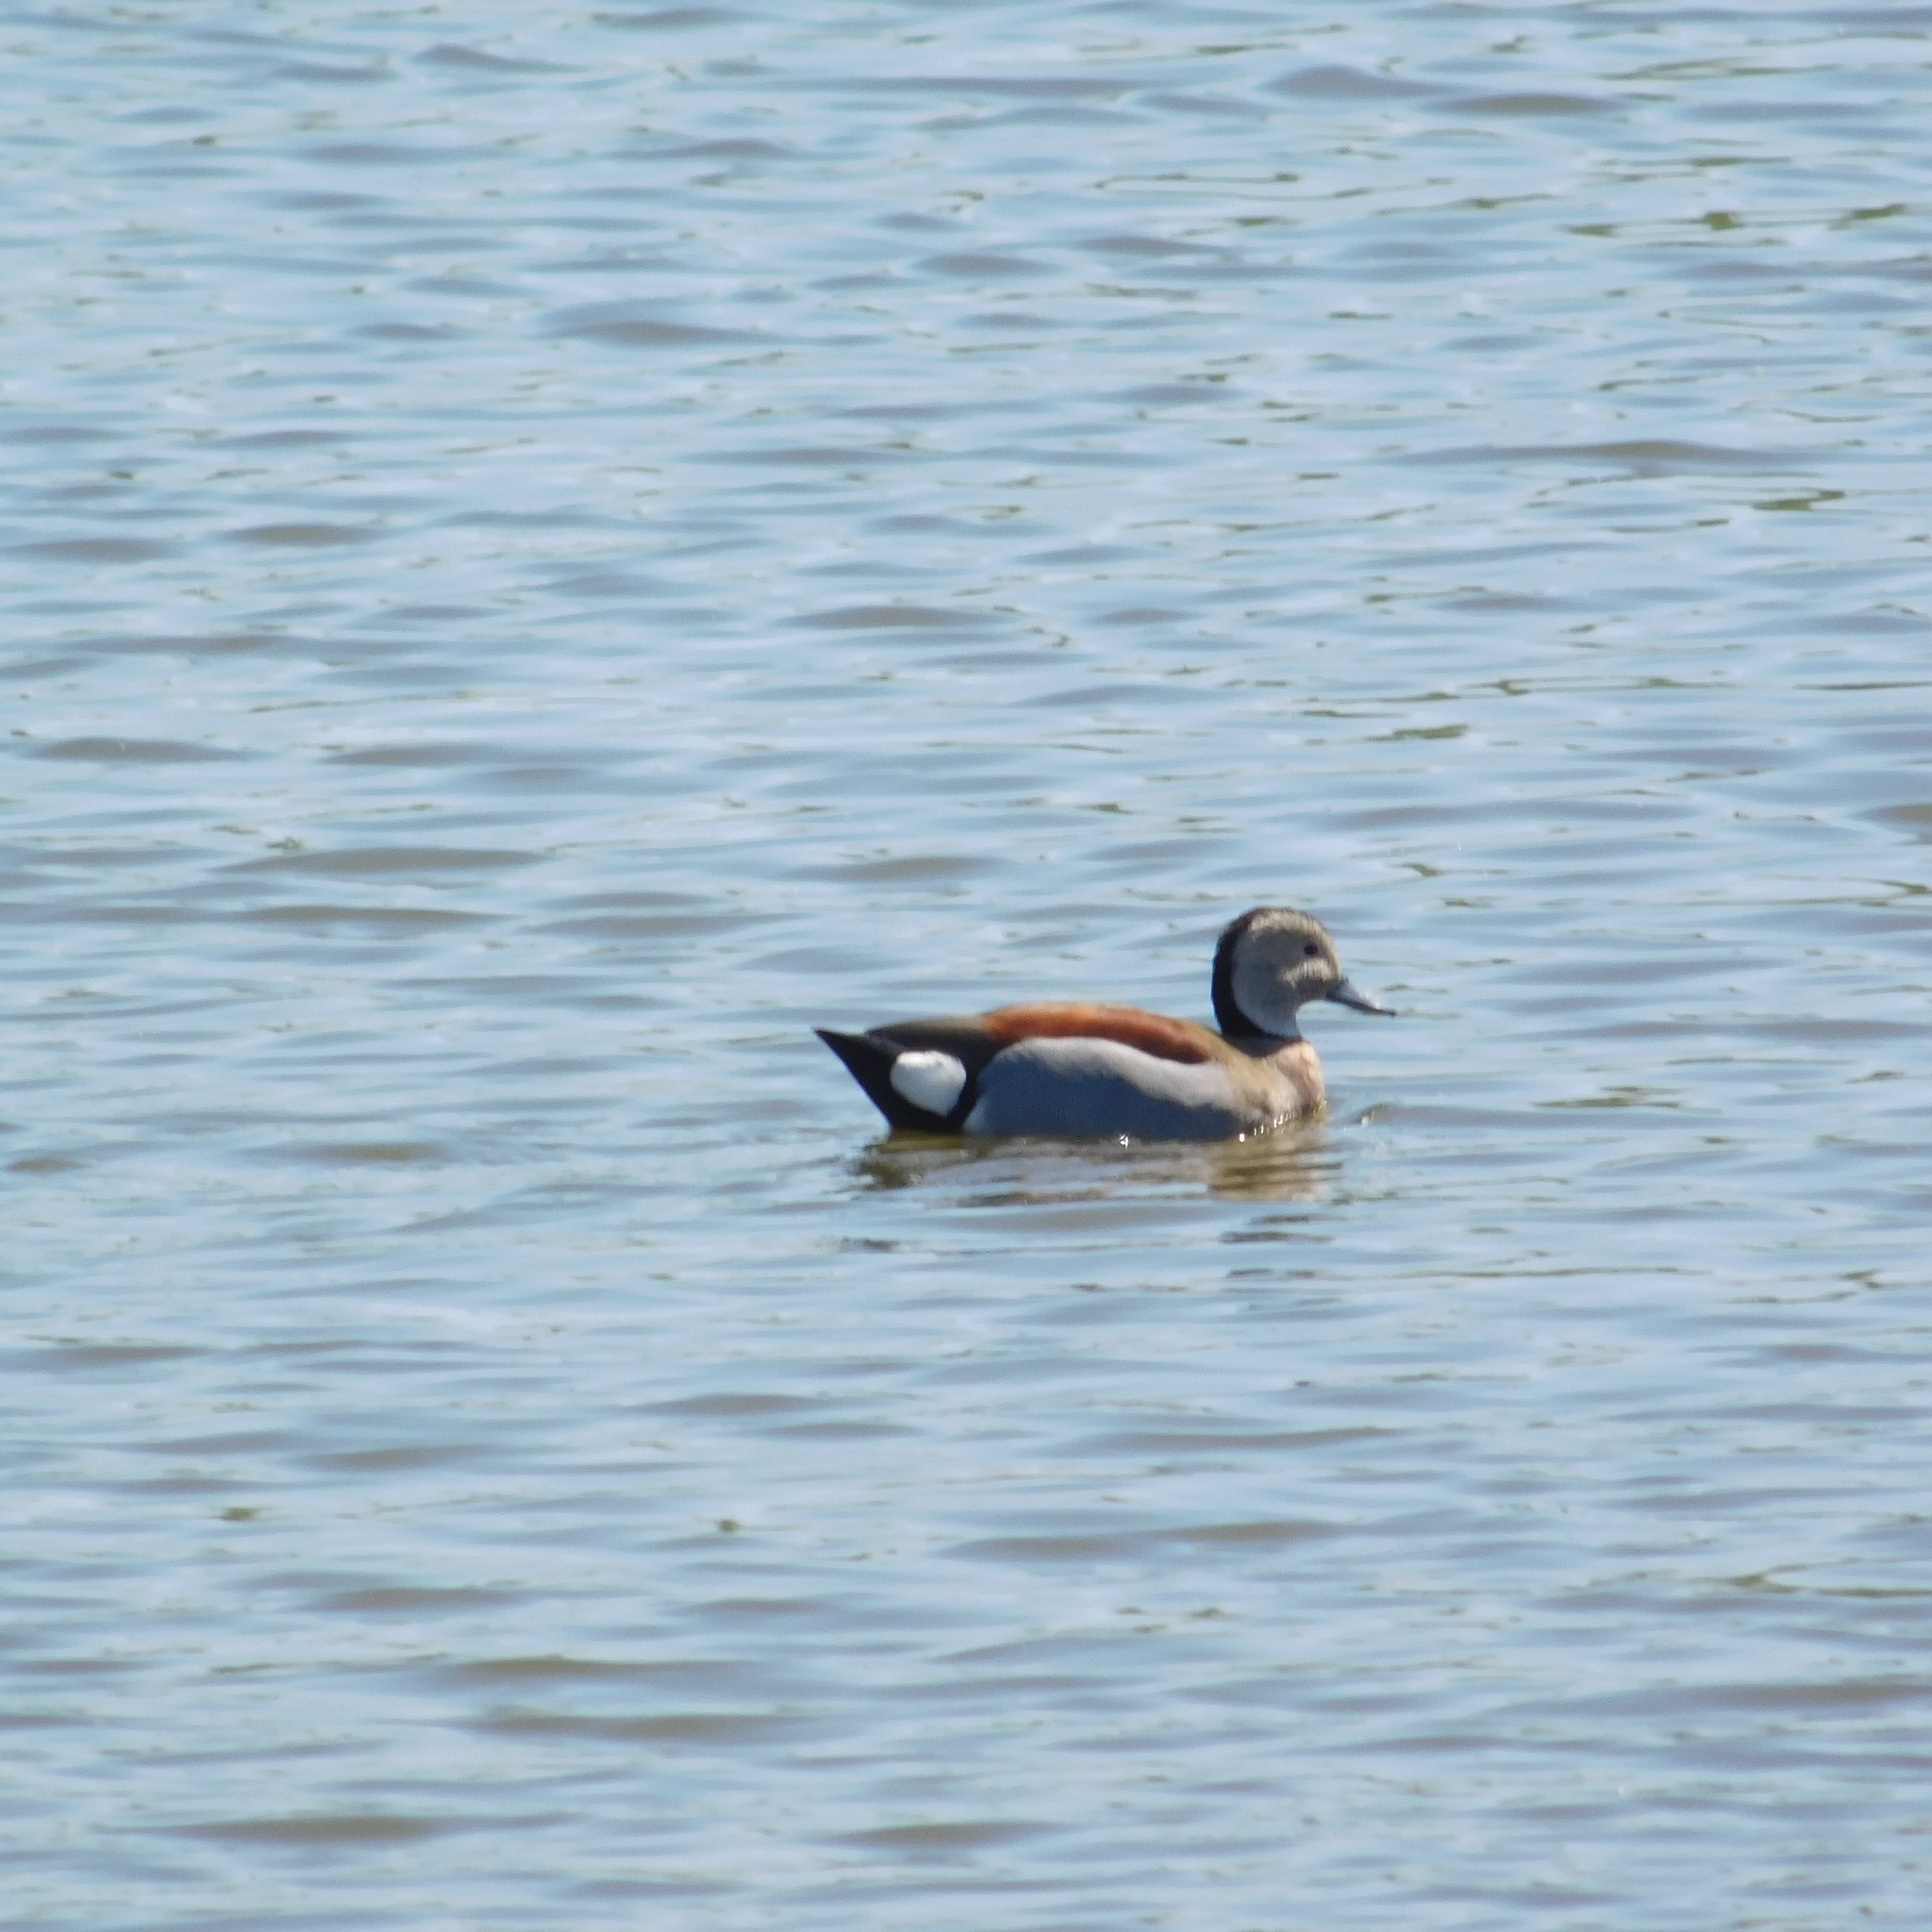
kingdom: Animalia
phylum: Chordata
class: Aves
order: Anseriformes
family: Anatidae
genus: Callonetta
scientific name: Callonetta leucophrys
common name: Ringed teal
